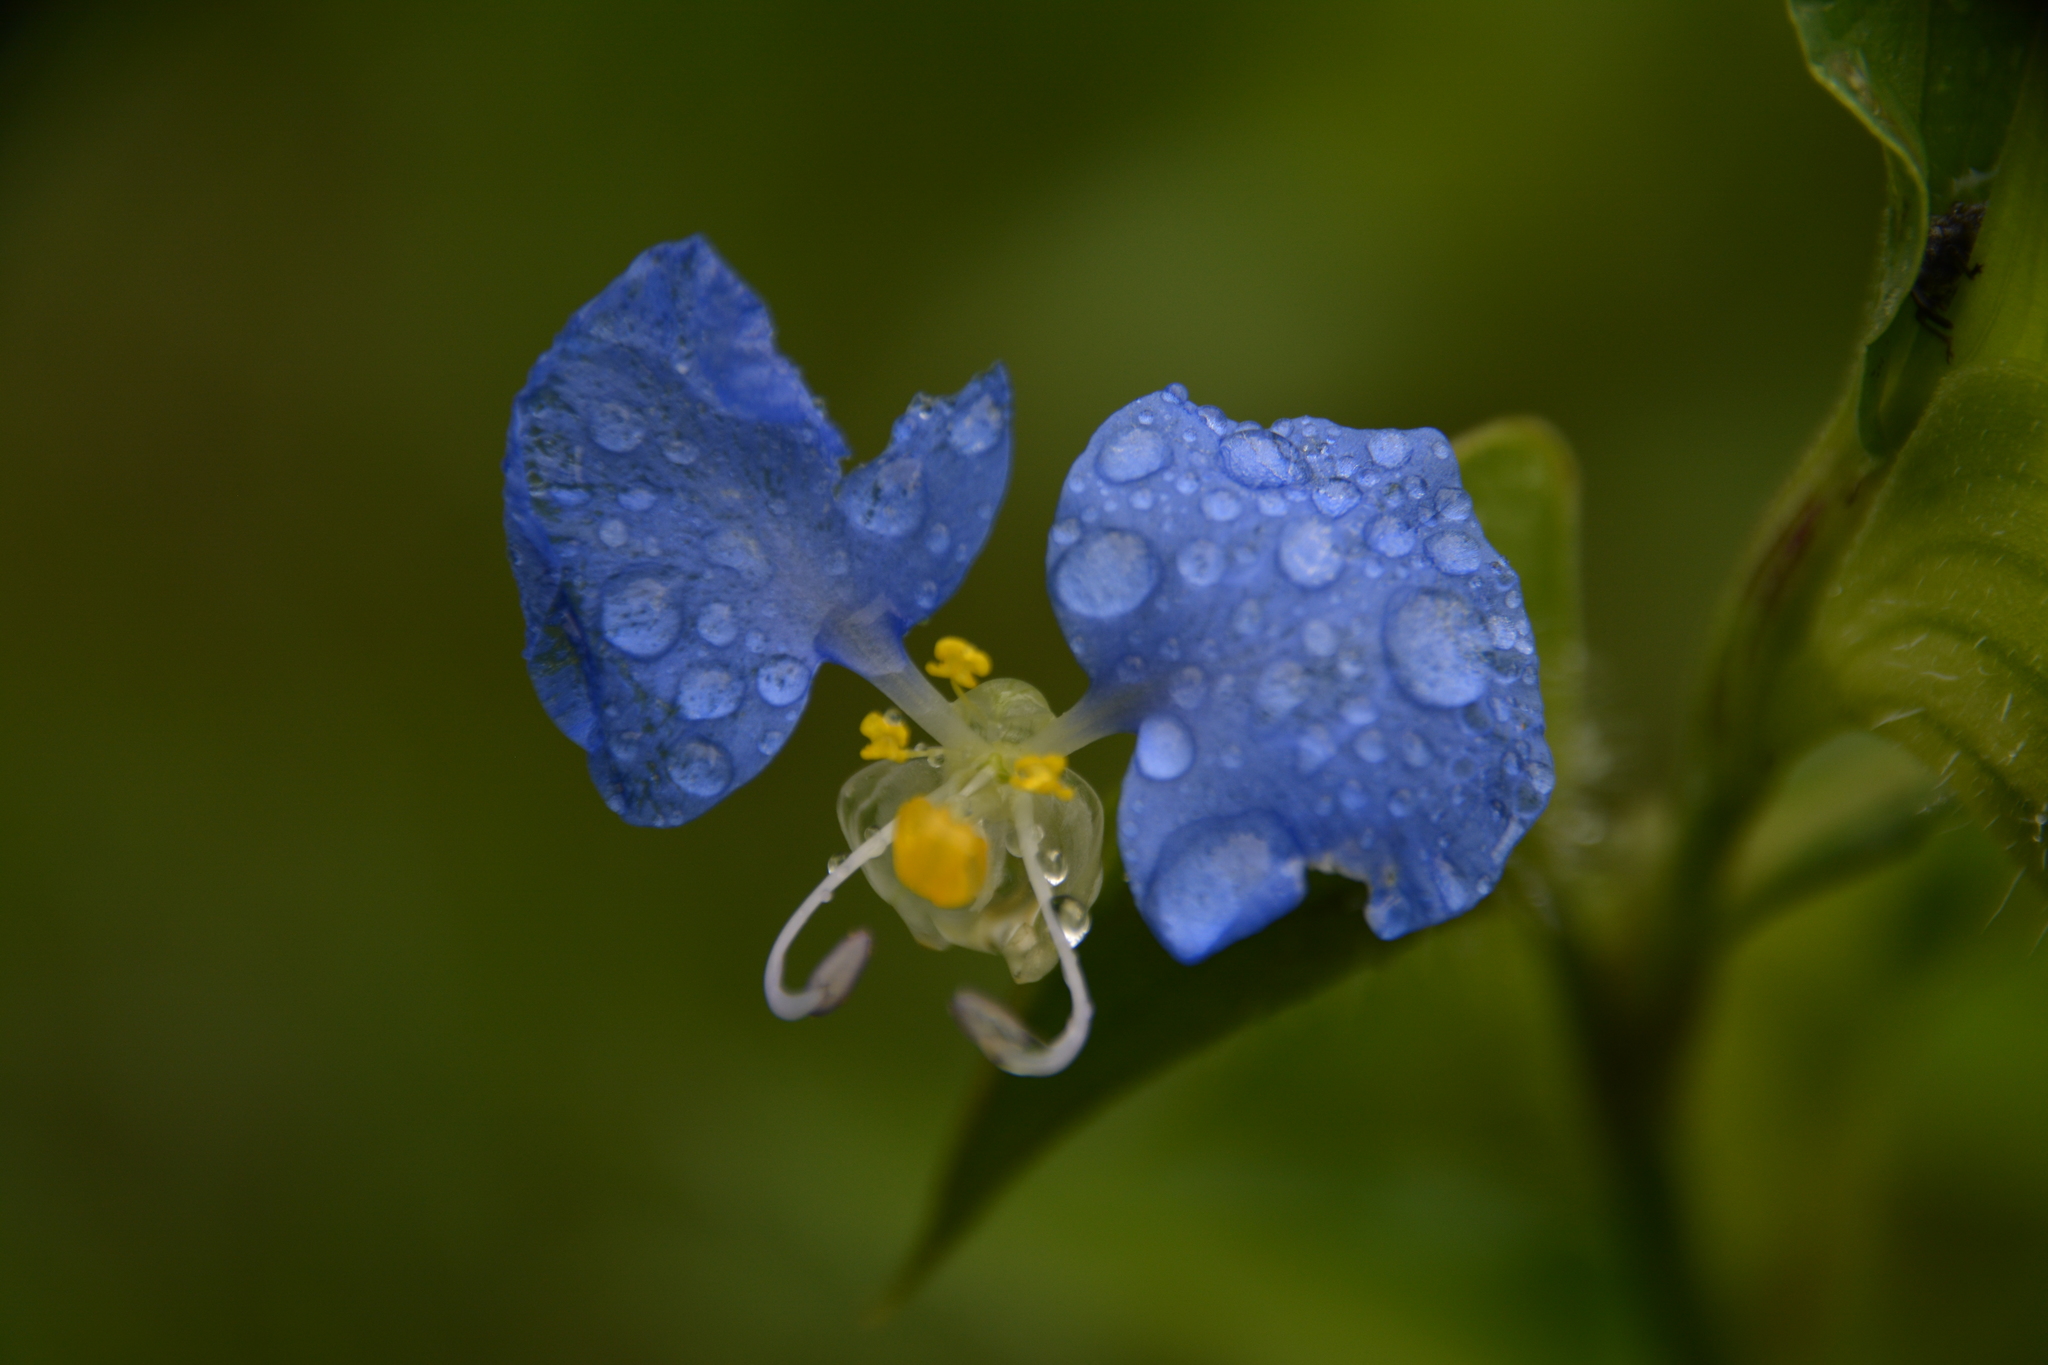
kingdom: Plantae
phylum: Tracheophyta
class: Liliopsida
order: Commelinales
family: Commelinaceae
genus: Commelina
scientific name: Commelina erecta
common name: Blousel blommetjie
